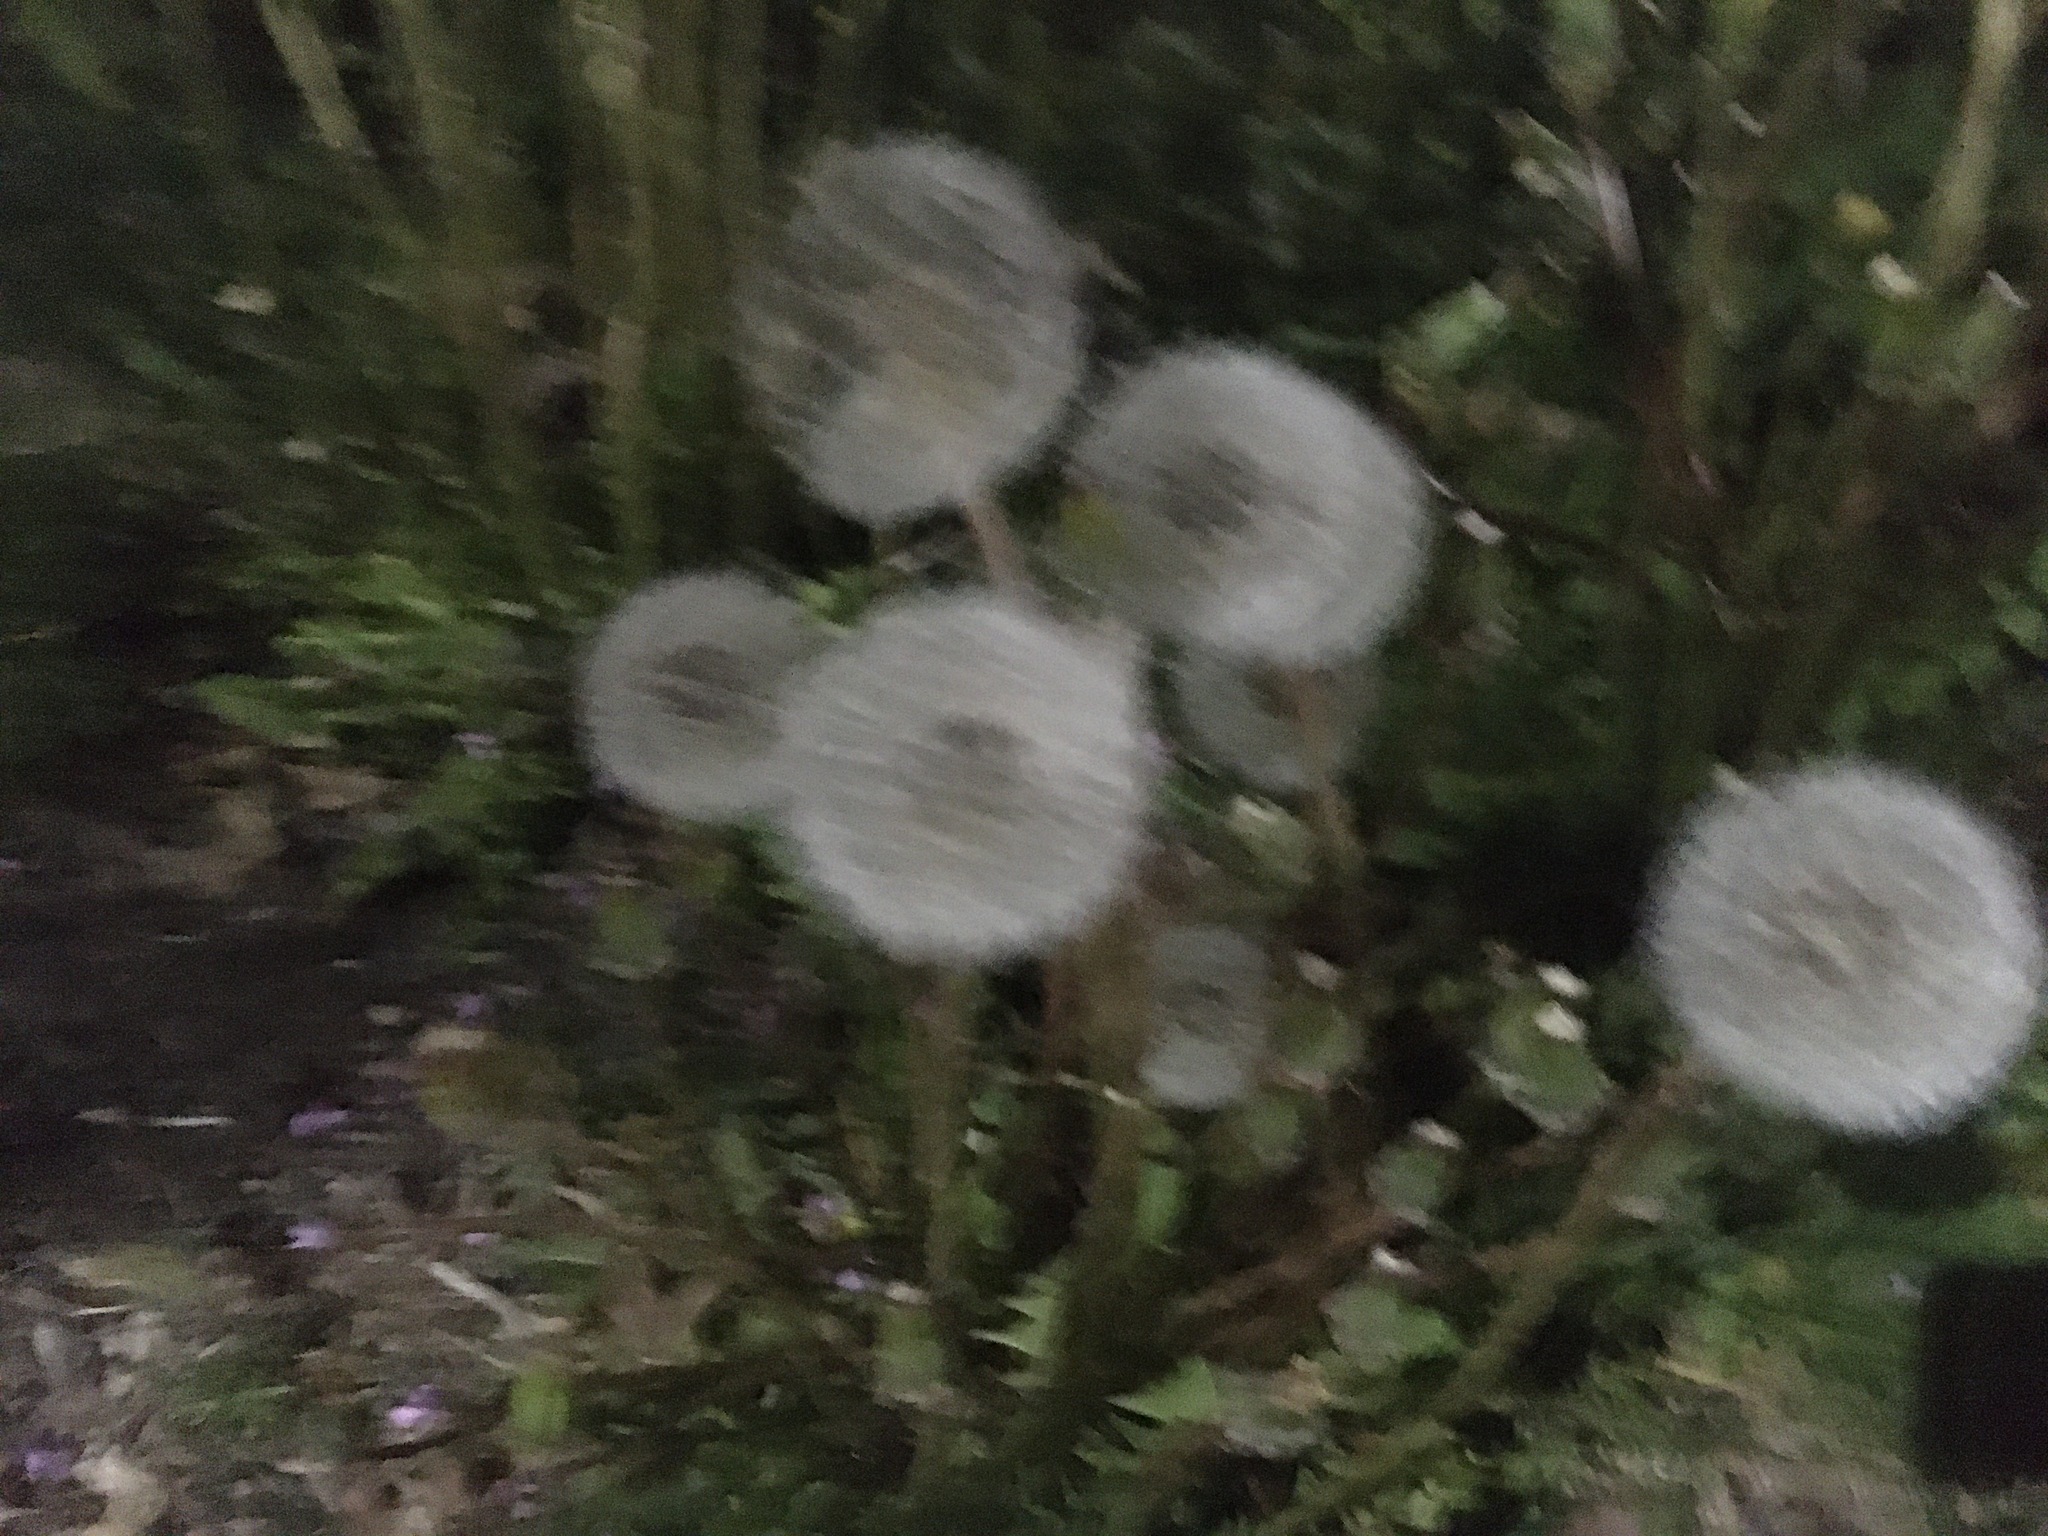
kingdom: Plantae
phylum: Tracheophyta
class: Magnoliopsida
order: Asterales
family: Asteraceae
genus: Taraxacum
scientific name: Taraxacum officinale
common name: Common dandelion
